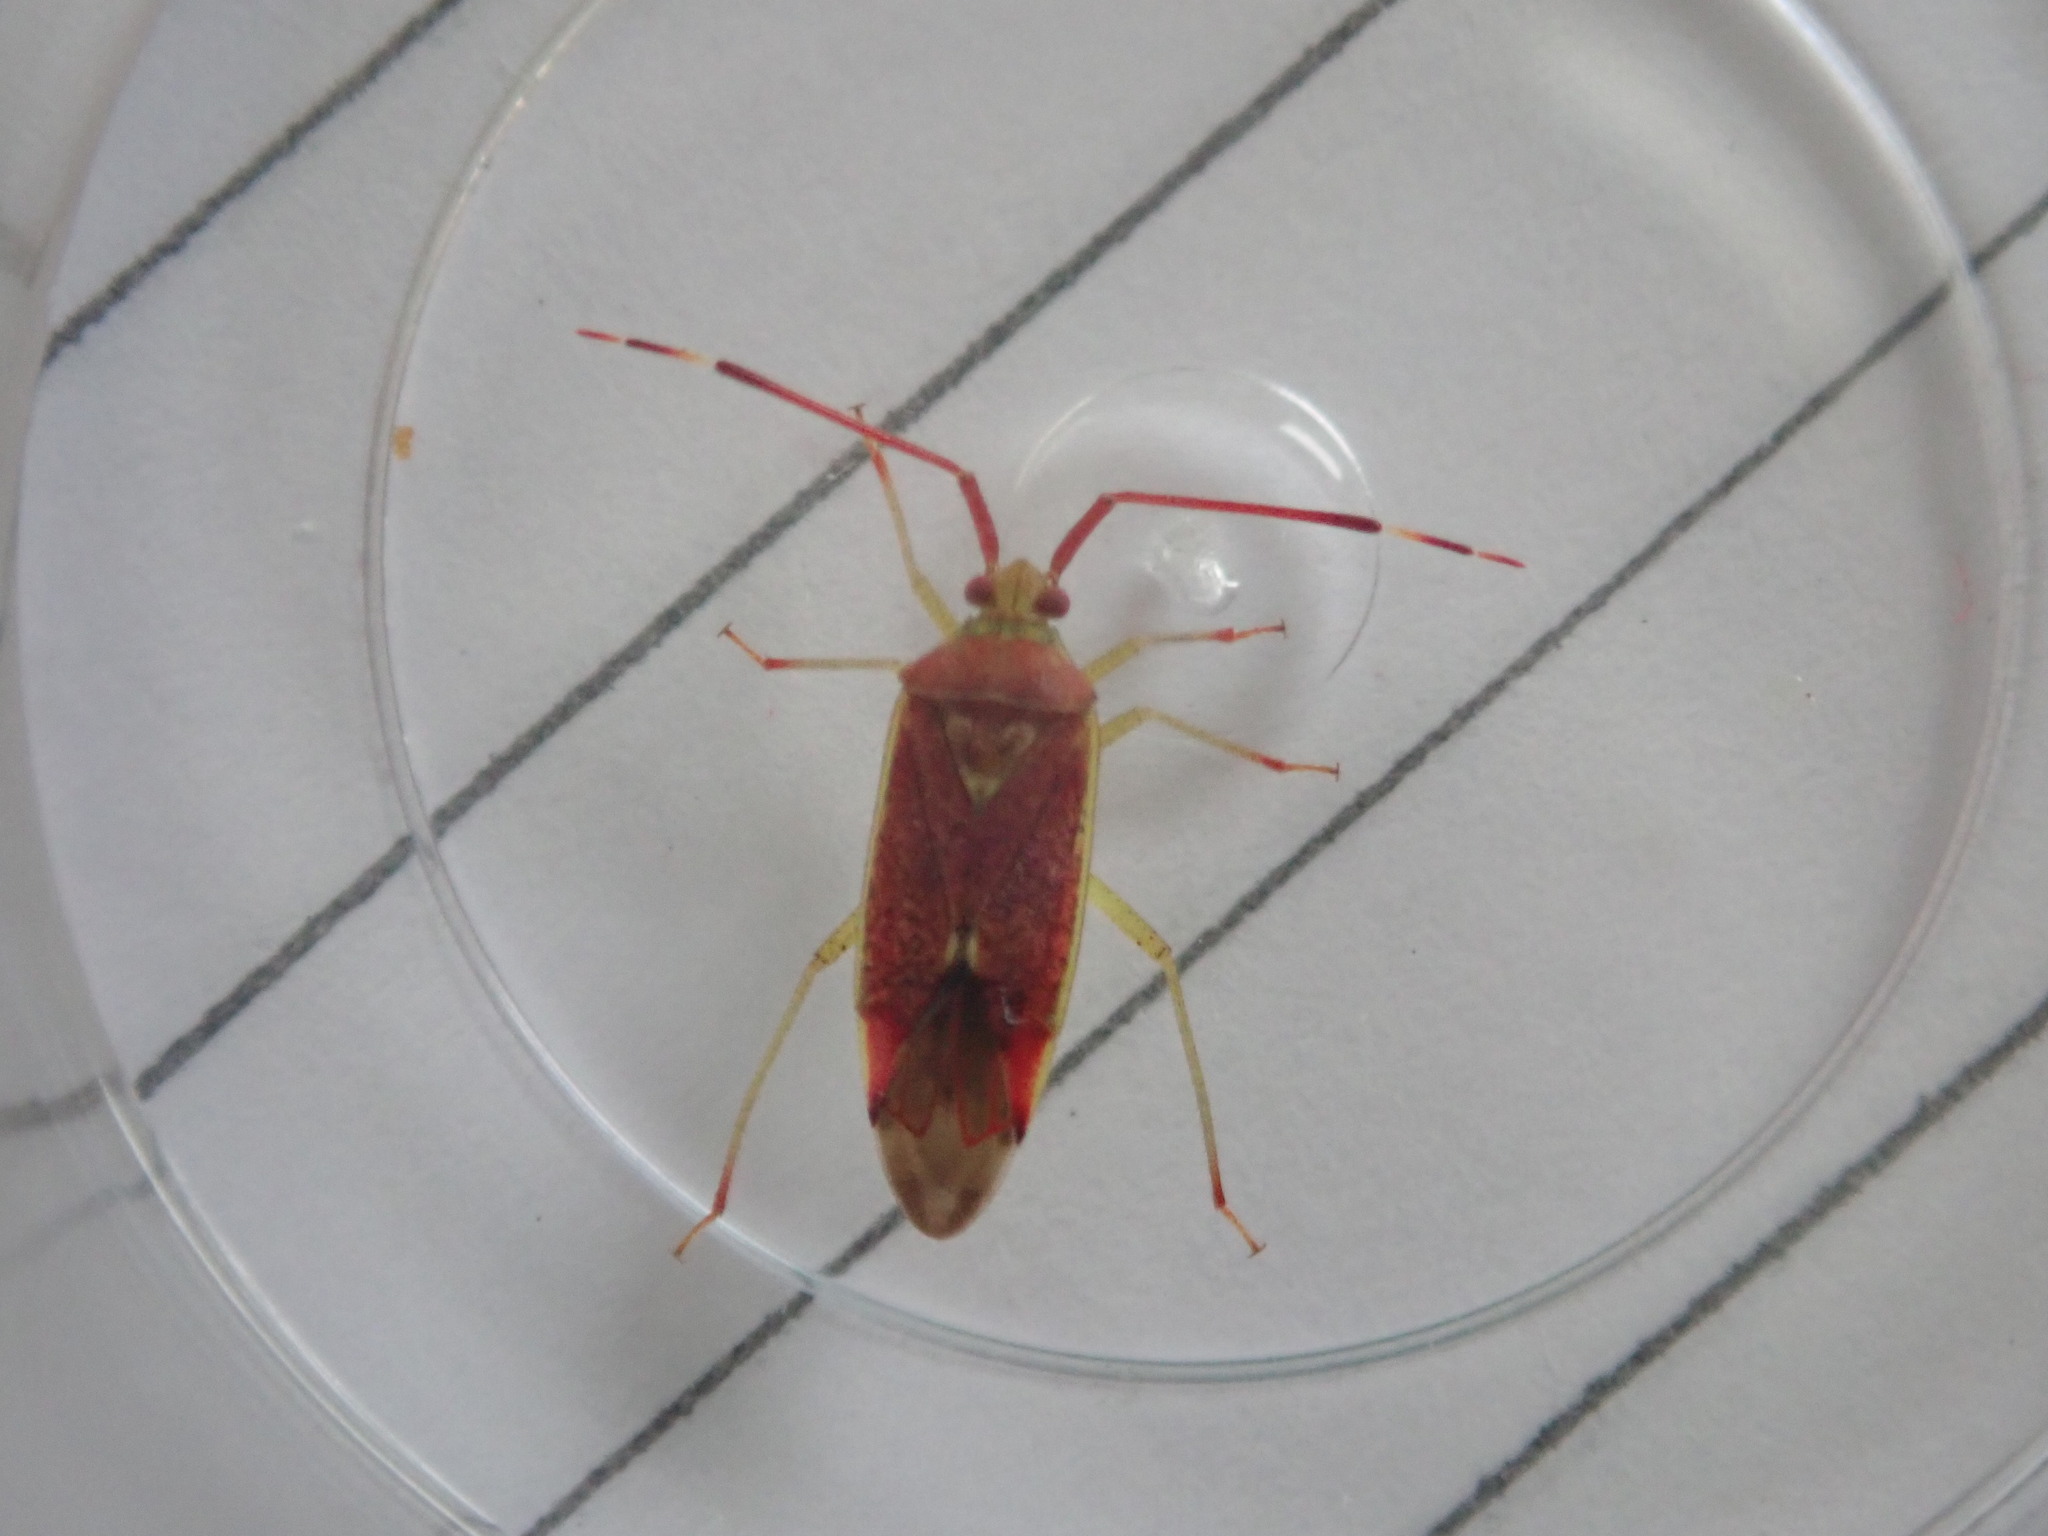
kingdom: Animalia
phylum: Arthropoda
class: Insecta
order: Hemiptera
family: Miridae
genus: Pantilius
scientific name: Pantilius tunicatus
